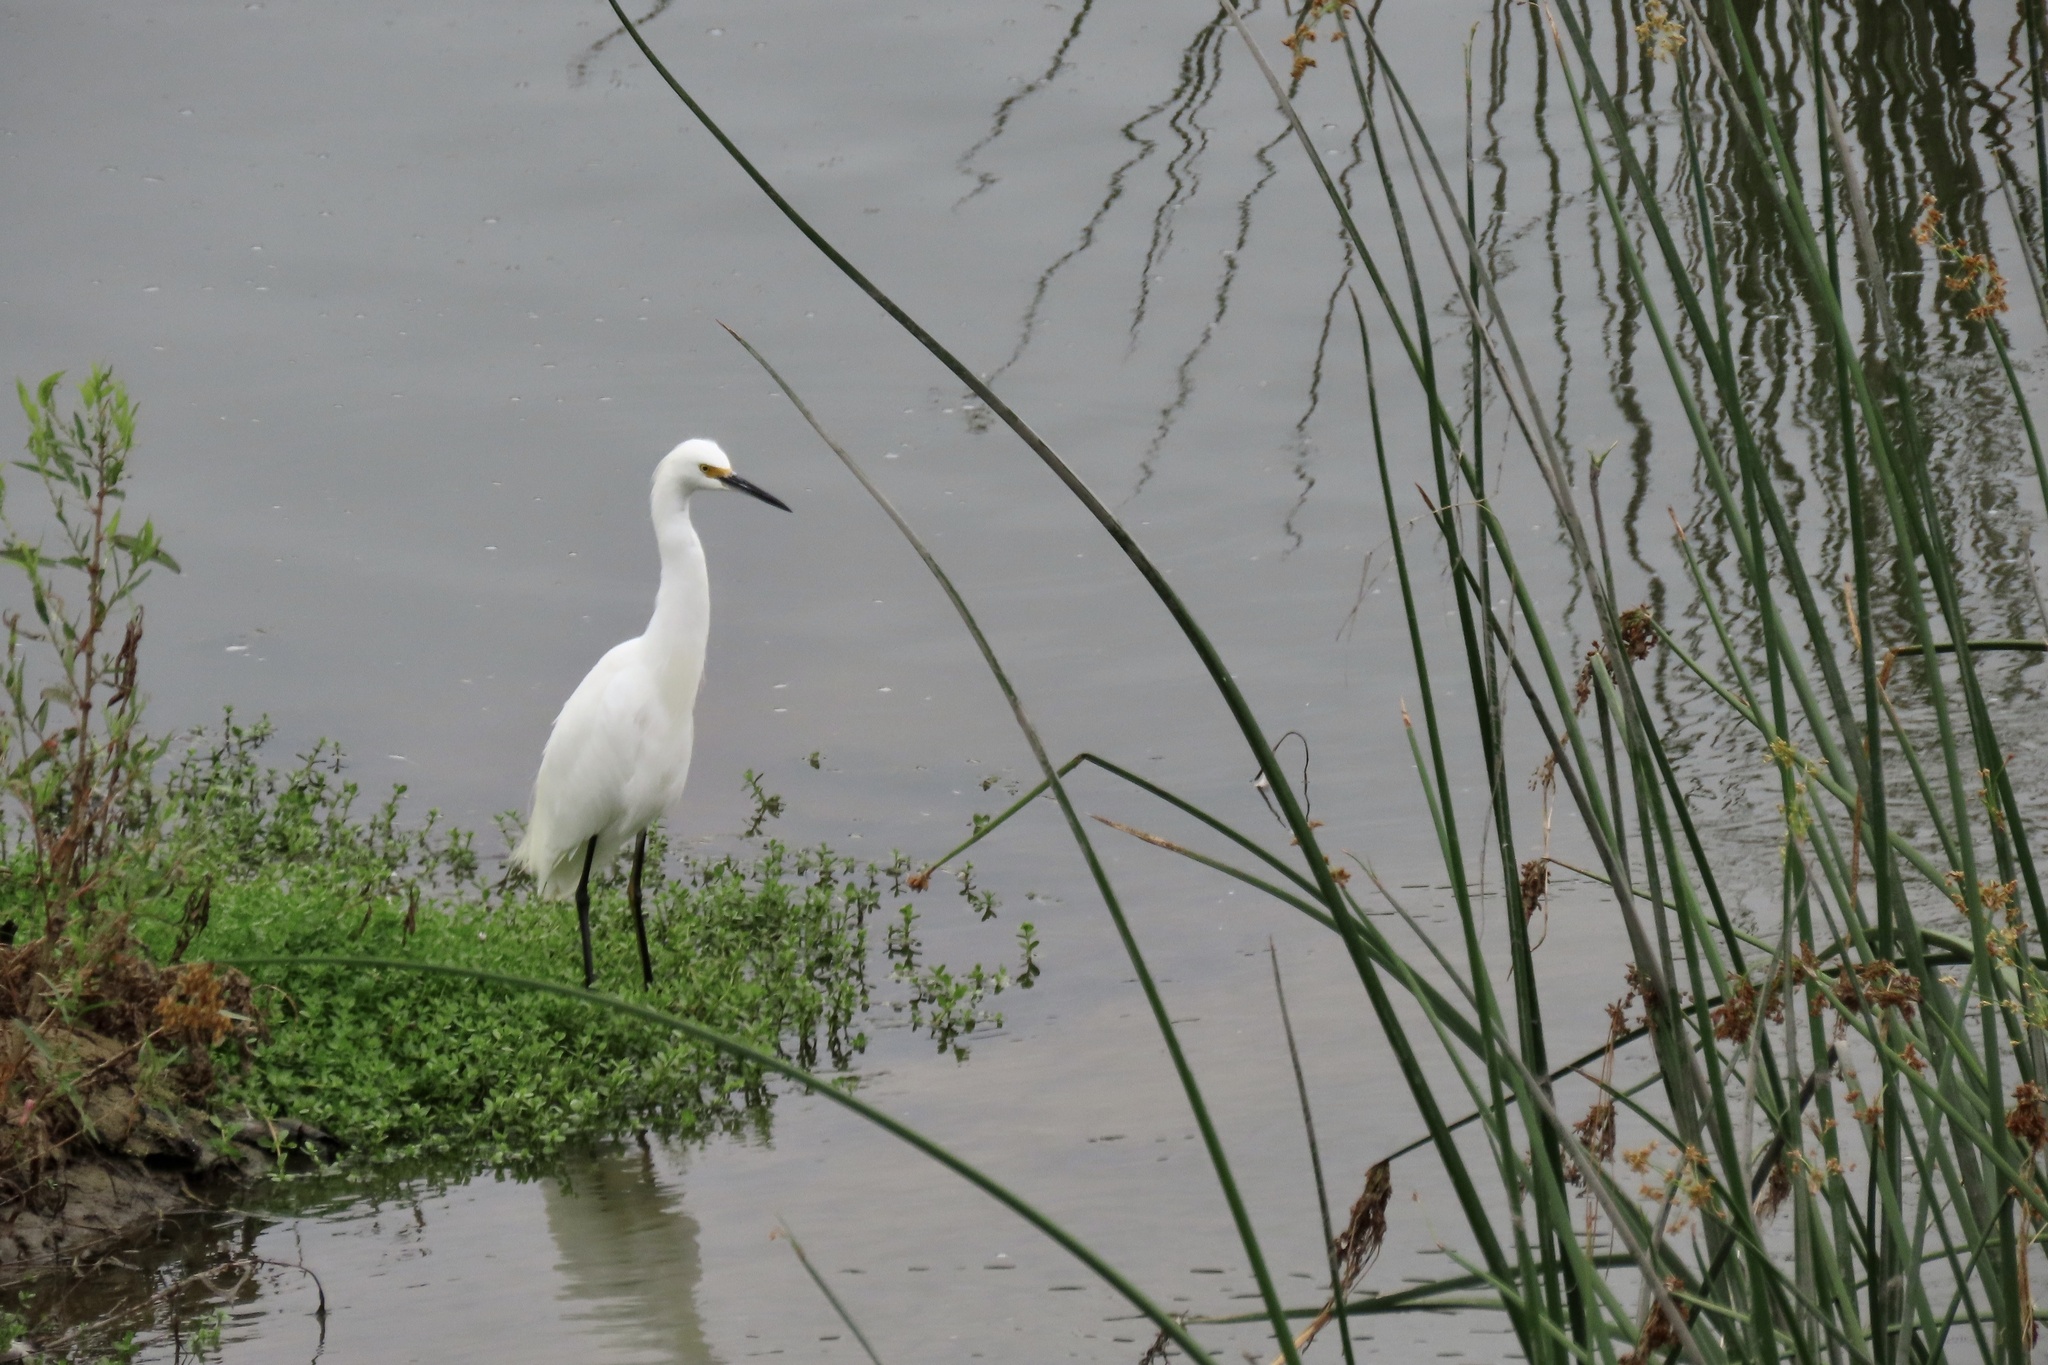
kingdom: Animalia
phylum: Chordata
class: Aves
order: Pelecaniformes
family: Ardeidae
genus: Egretta
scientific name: Egretta thula
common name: Snowy egret
